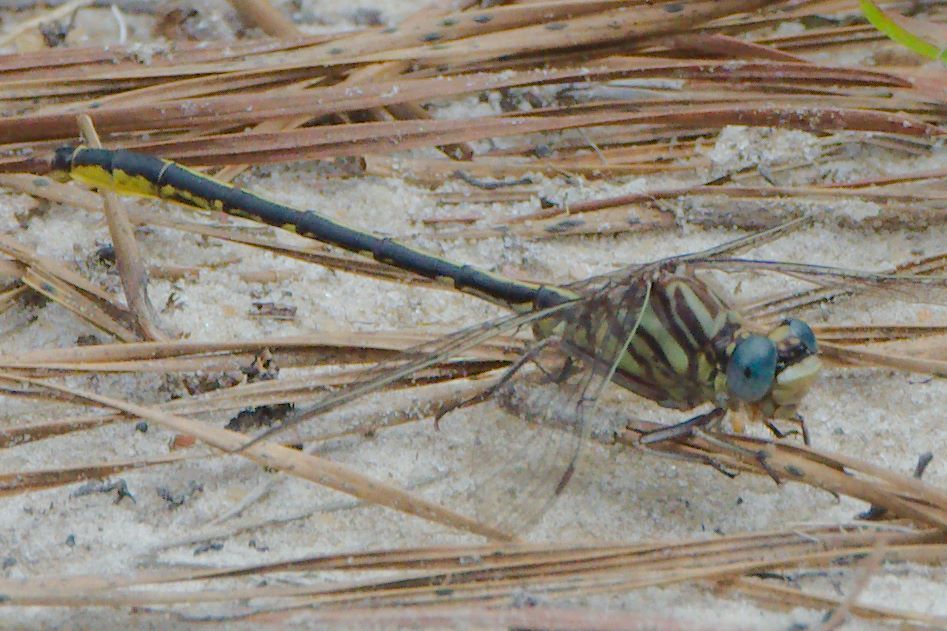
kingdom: Animalia
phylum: Arthropoda
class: Insecta
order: Odonata
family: Gomphidae
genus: Phanogomphus
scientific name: Phanogomphus hodgesi
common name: Hodges' clubtail
